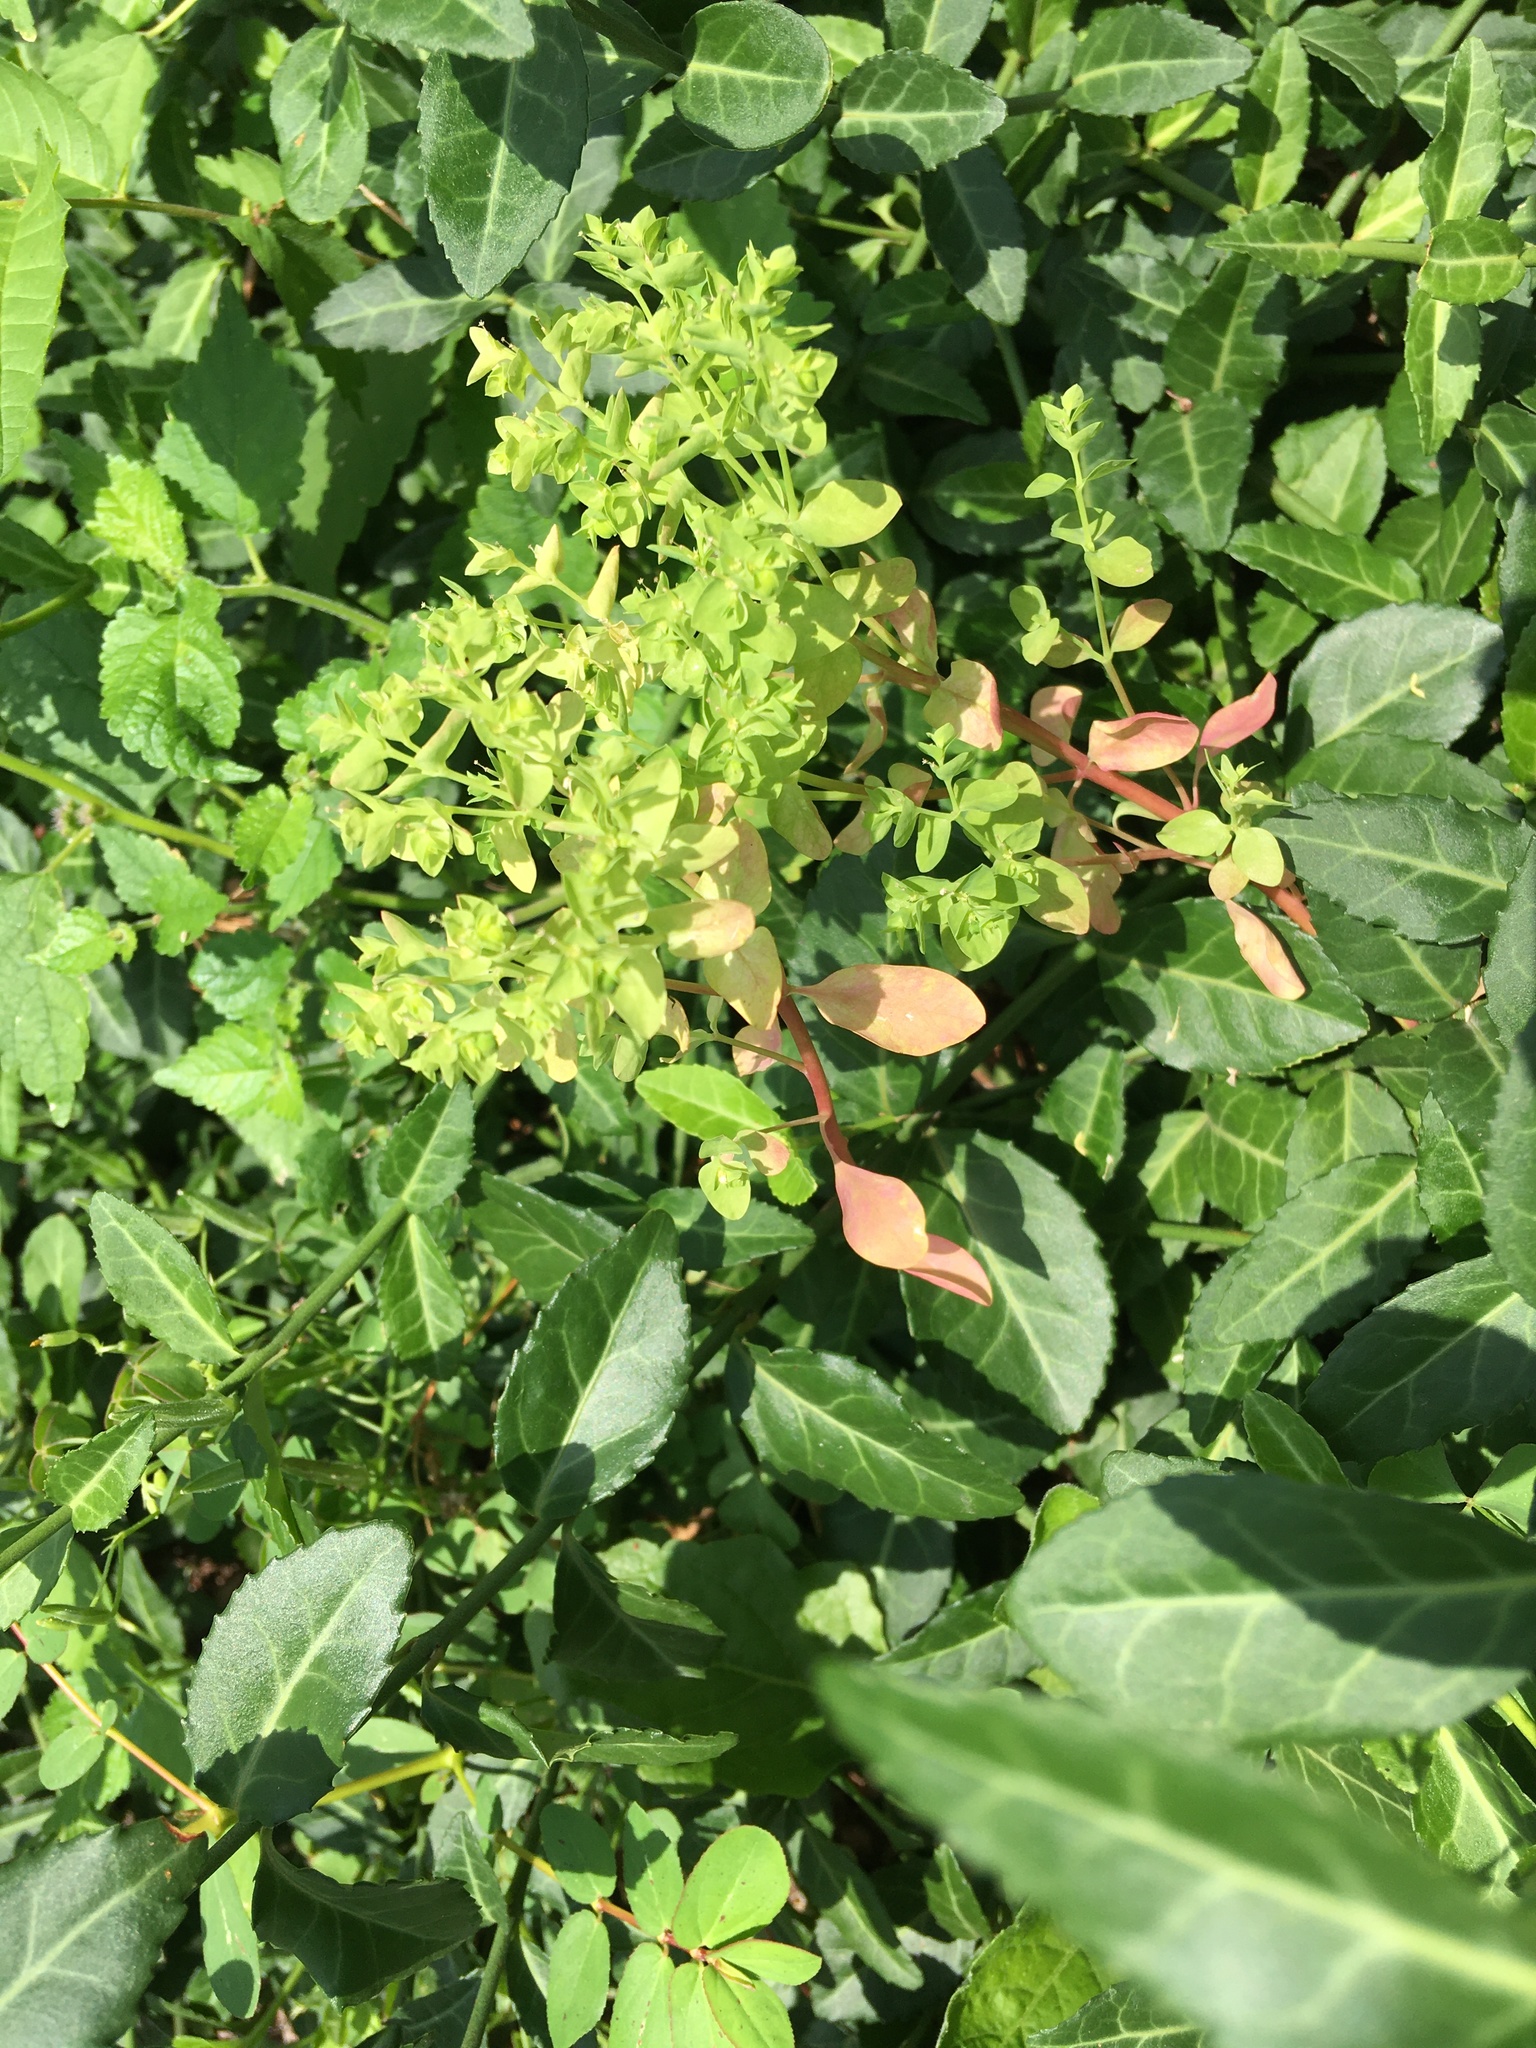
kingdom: Plantae
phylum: Tracheophyta
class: Magnoliopsida
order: Malpighiales
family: Euphorbiaceae
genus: Euphorbia
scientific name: Euphorbia peplus
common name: Petty spurge
